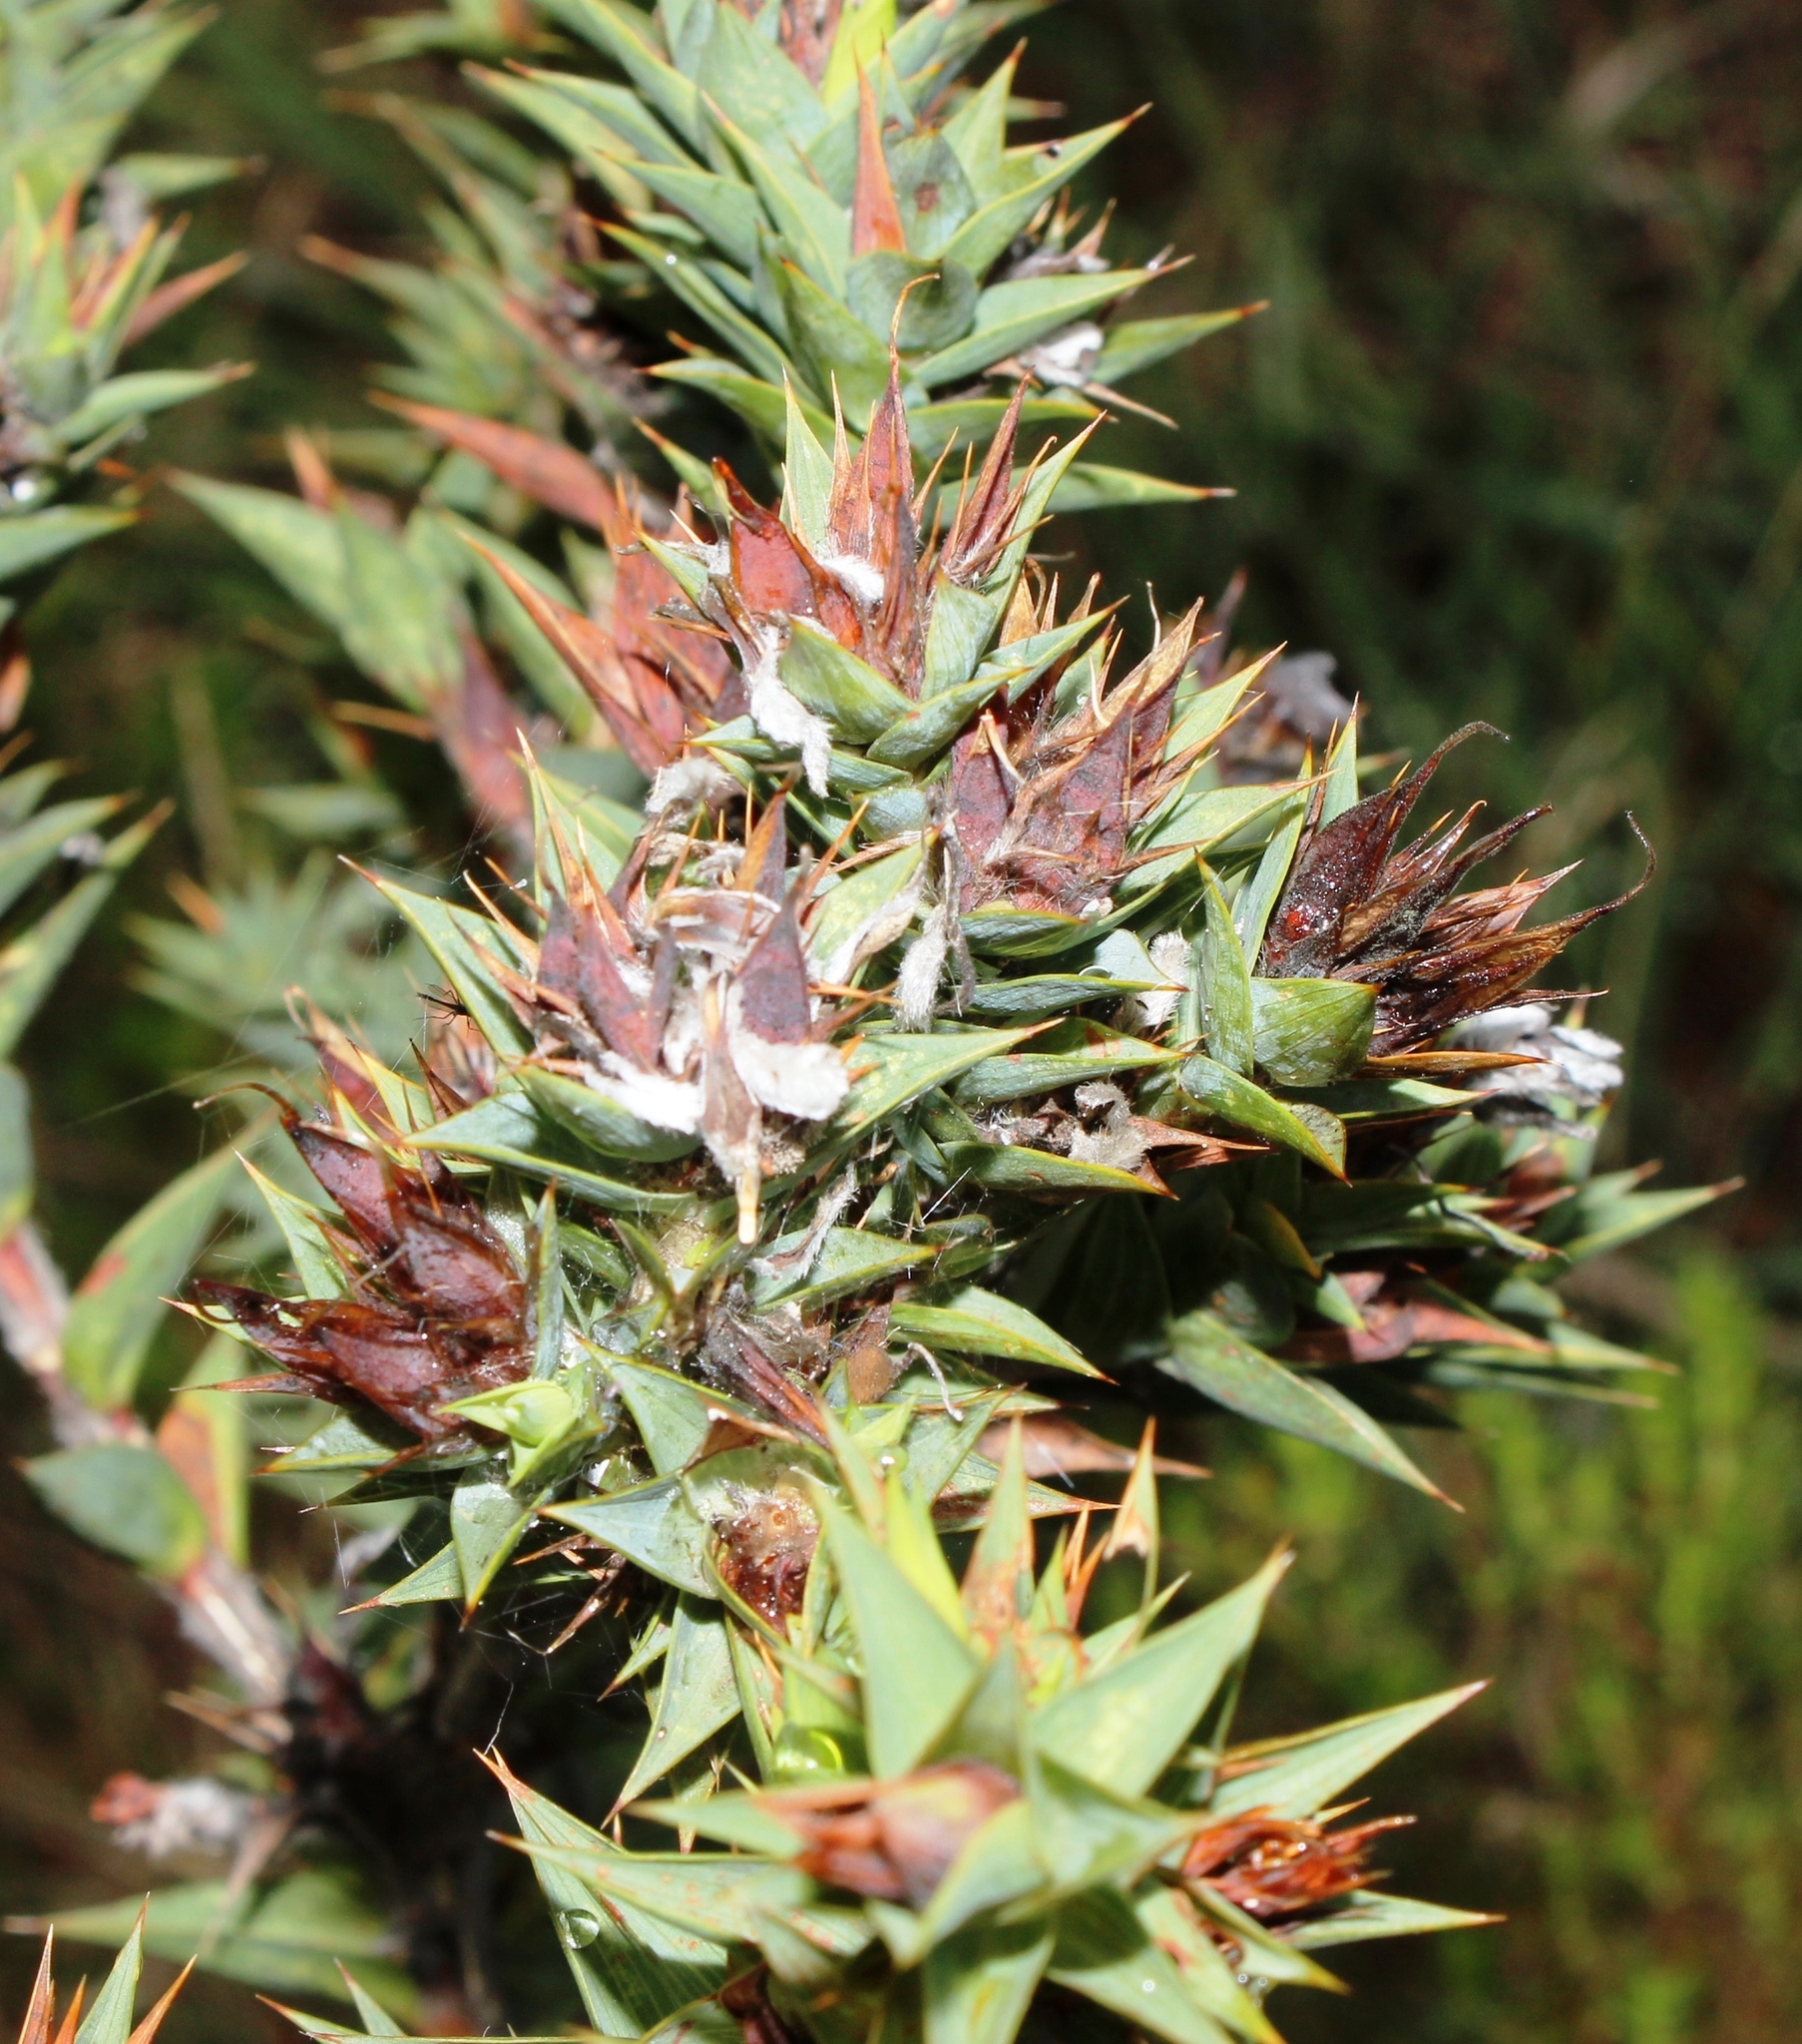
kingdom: Plantae
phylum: Tracheophyta
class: Magnoliopsida
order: Fabales
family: Fabaceae
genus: Aspalathus
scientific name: Aspalathus cordata
